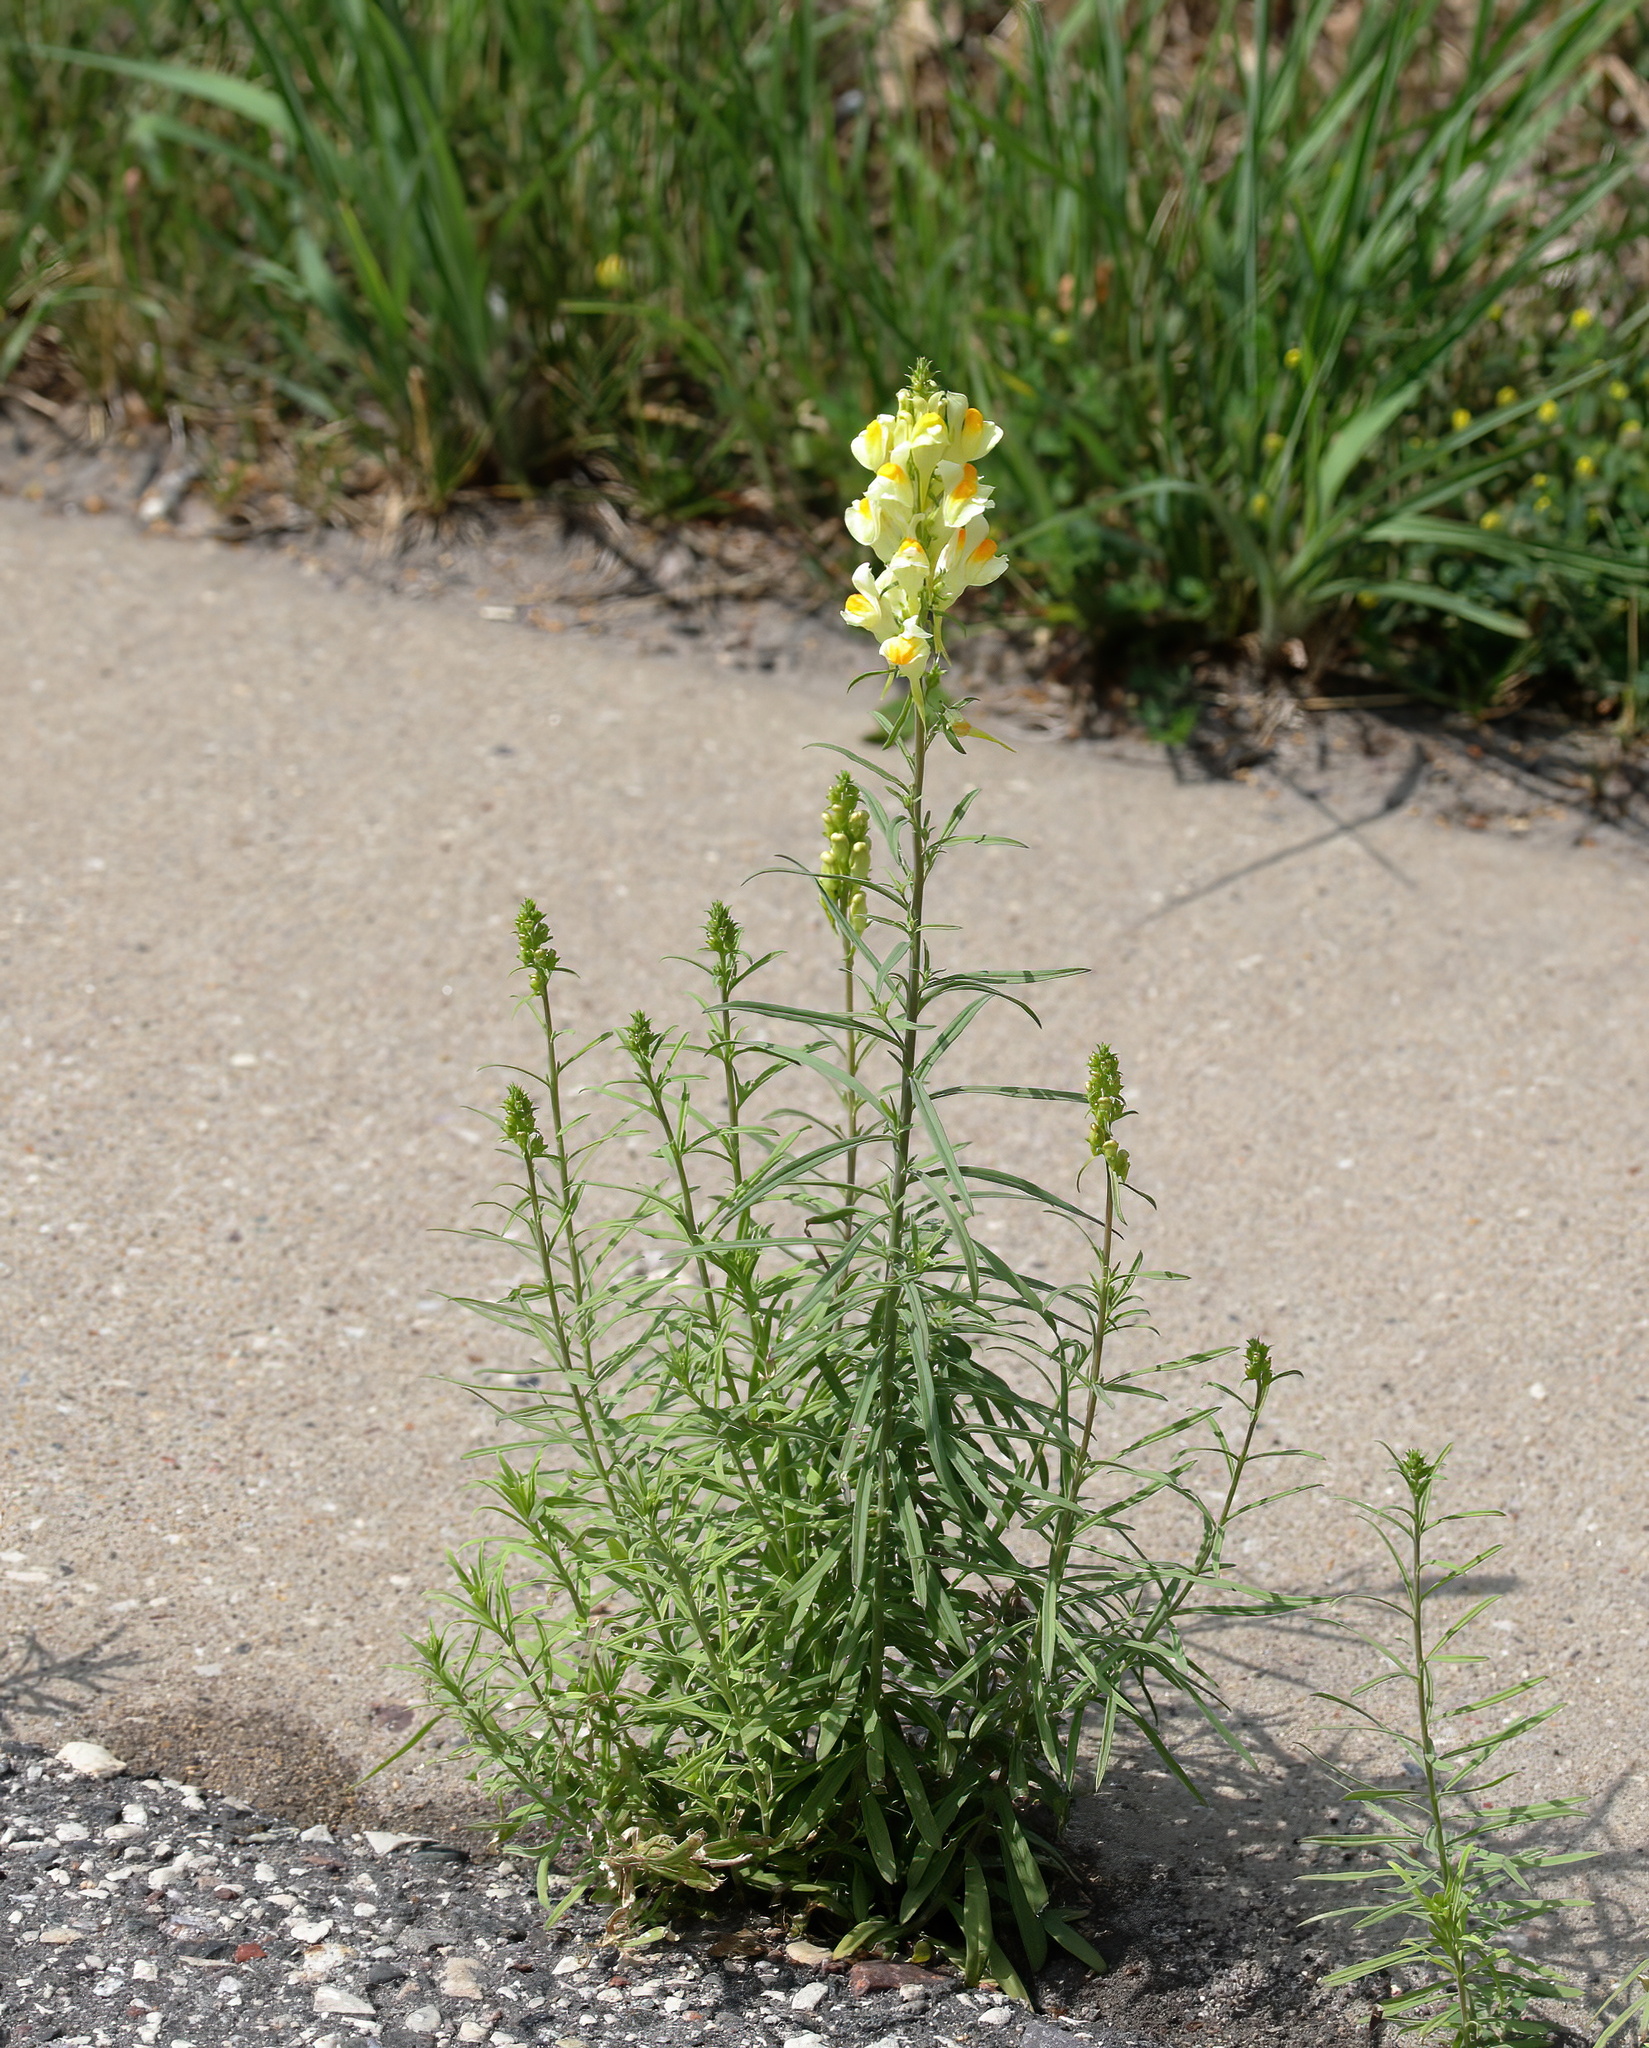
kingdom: Plantae
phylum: Tracheophyta
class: Magnoliopsida
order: Lamiales
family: Plantaginaceae
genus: Linaria
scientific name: Linaria vulgaris
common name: Butter and eggs
